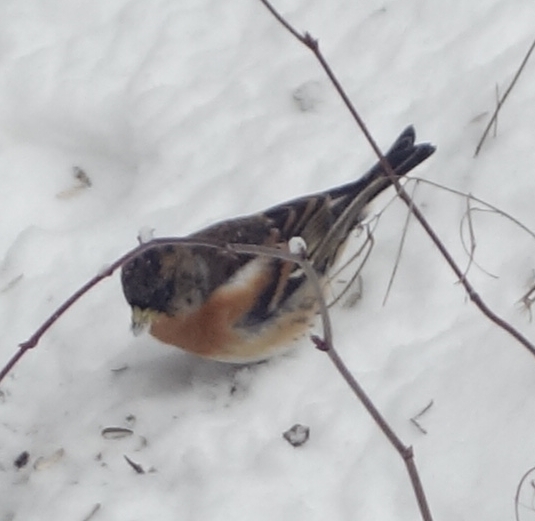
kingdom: Animalia
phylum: Chordata
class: Aves
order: Passeriformes
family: Fringillidae
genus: Fringilla
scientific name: Fringilla montifringilla
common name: Brambling
